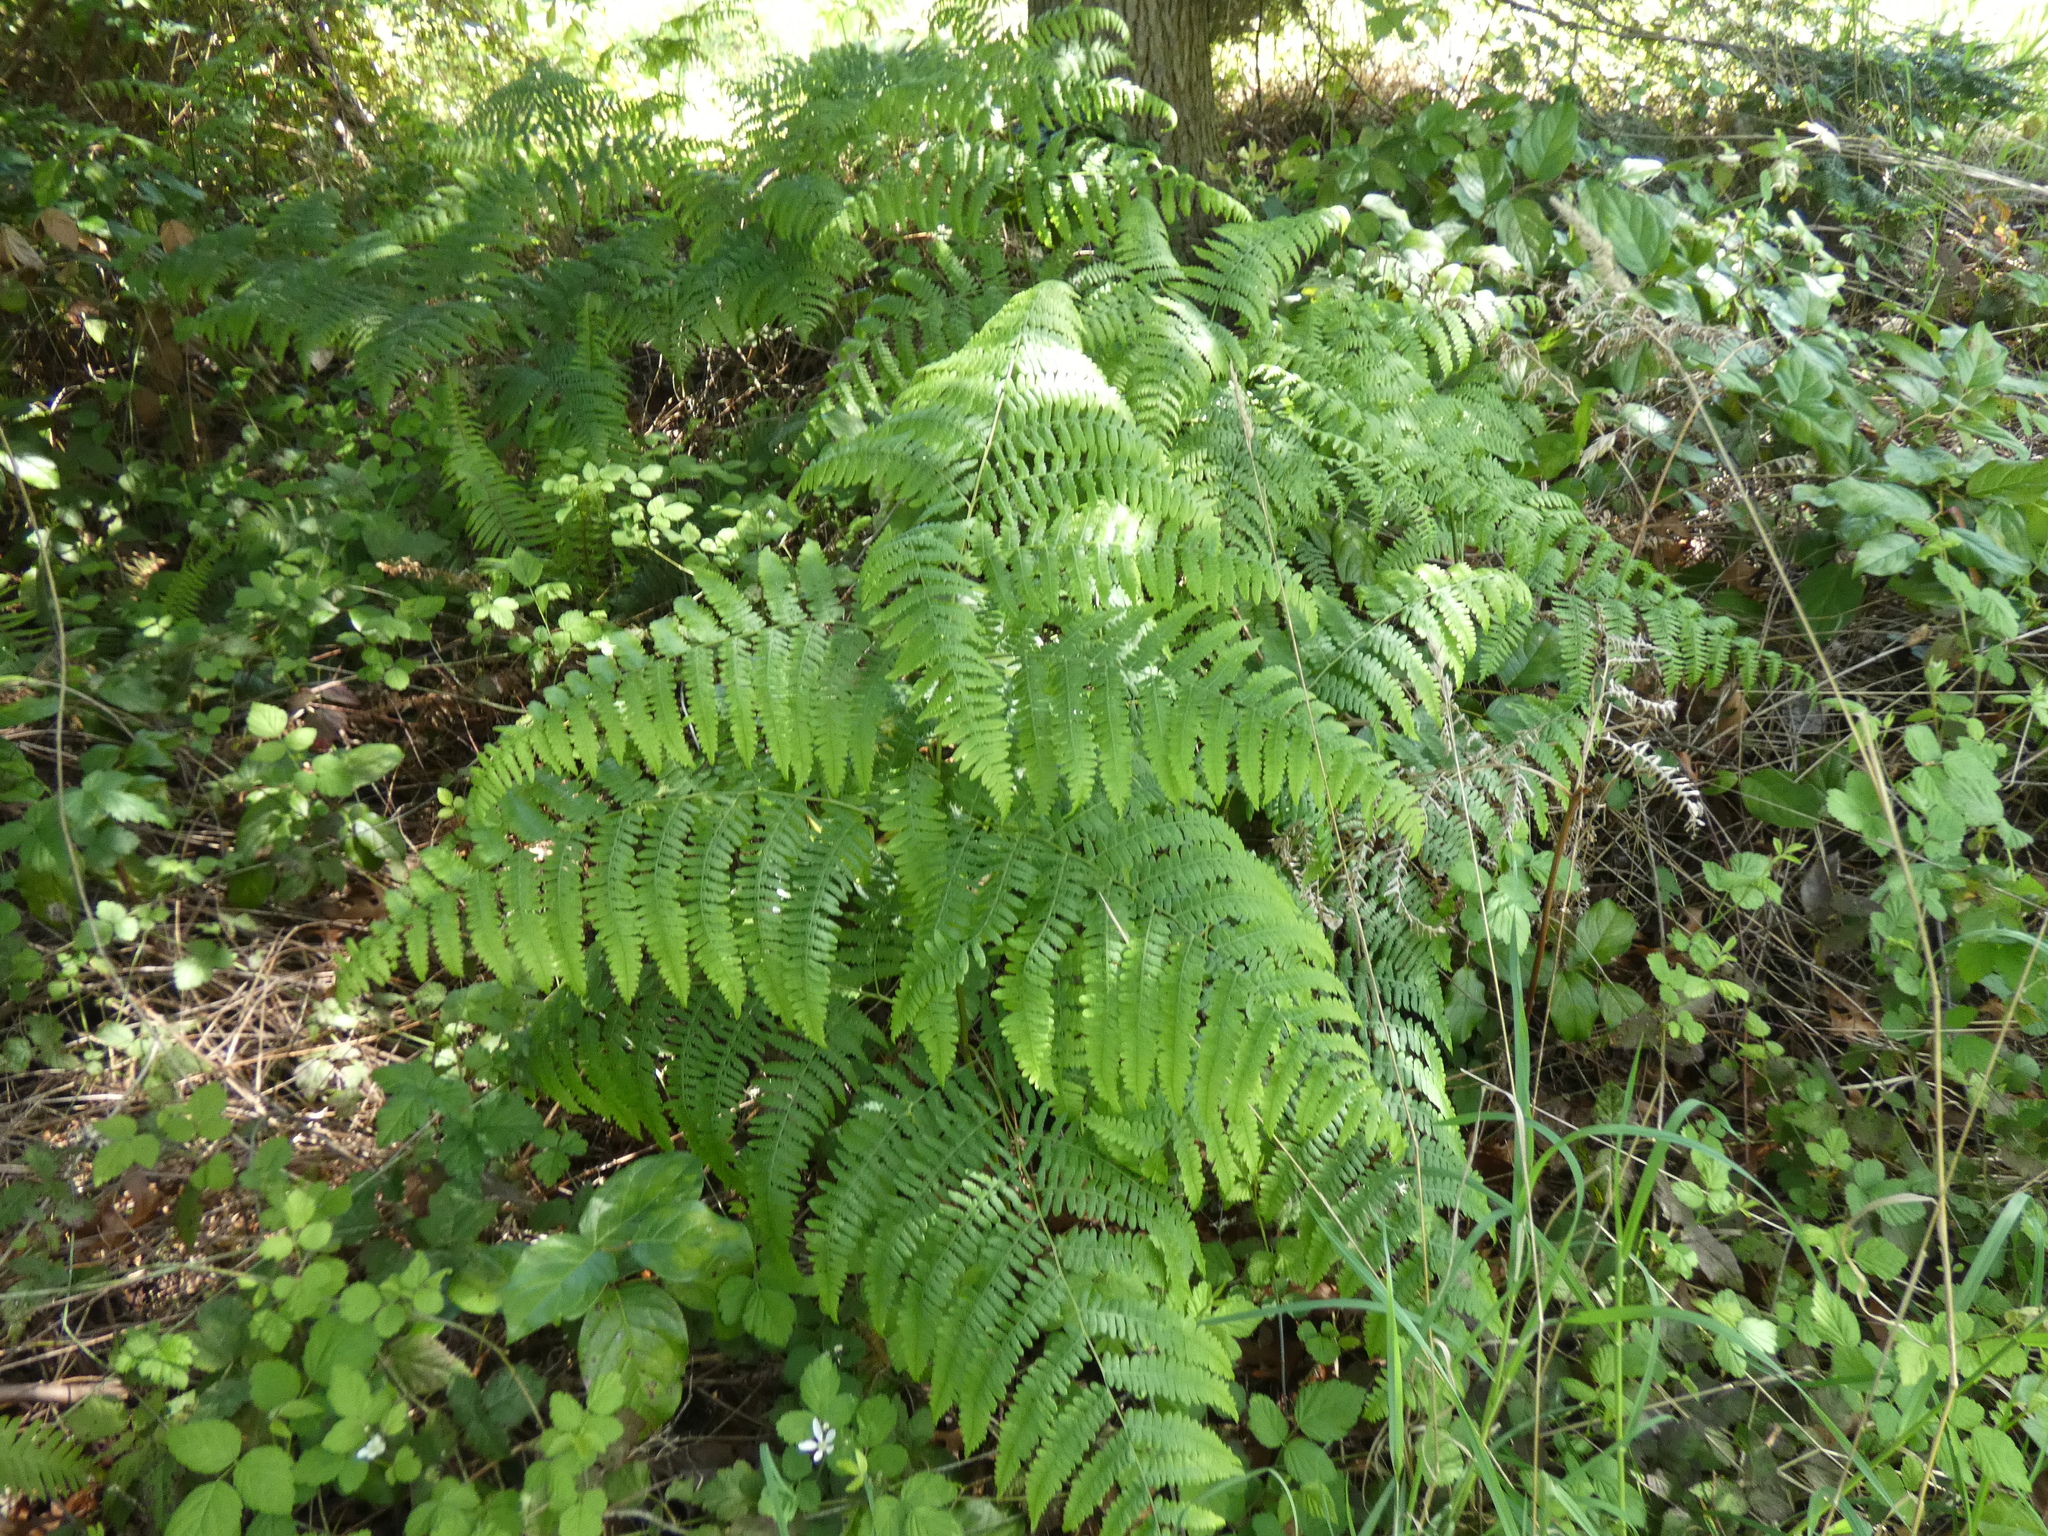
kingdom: Plantae
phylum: Tracheophyta
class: Polypodiopsida
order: Polypodiales
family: Dennstaedtiaceae
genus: Pteridium
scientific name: Pteridium aquilinum
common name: Bracken
